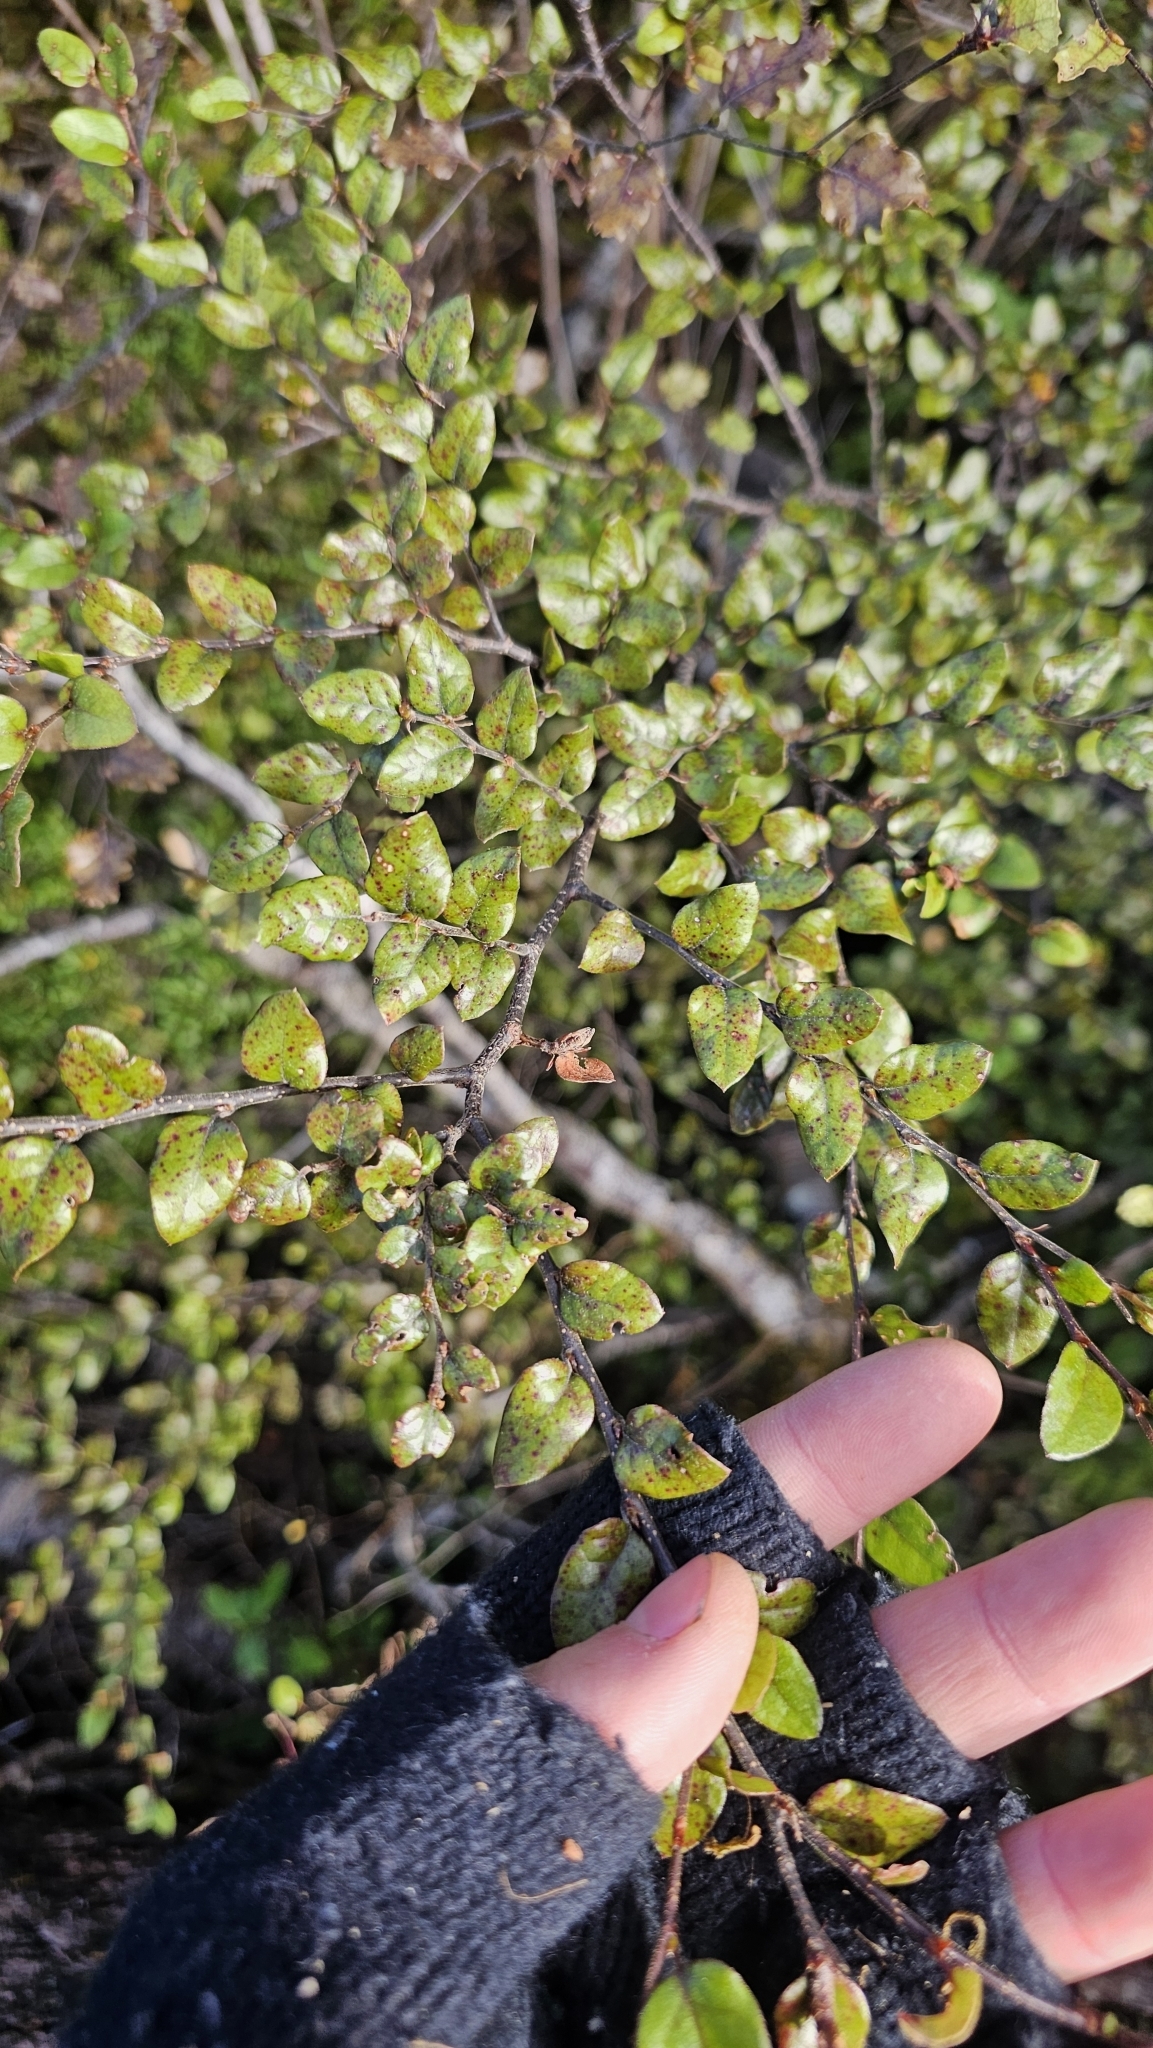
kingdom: Plantae
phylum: Tracheophyta
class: Magnoliopsida
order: Fagales
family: Nothofagaceae
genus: Nothofagus
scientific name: Nothofagus blairii
